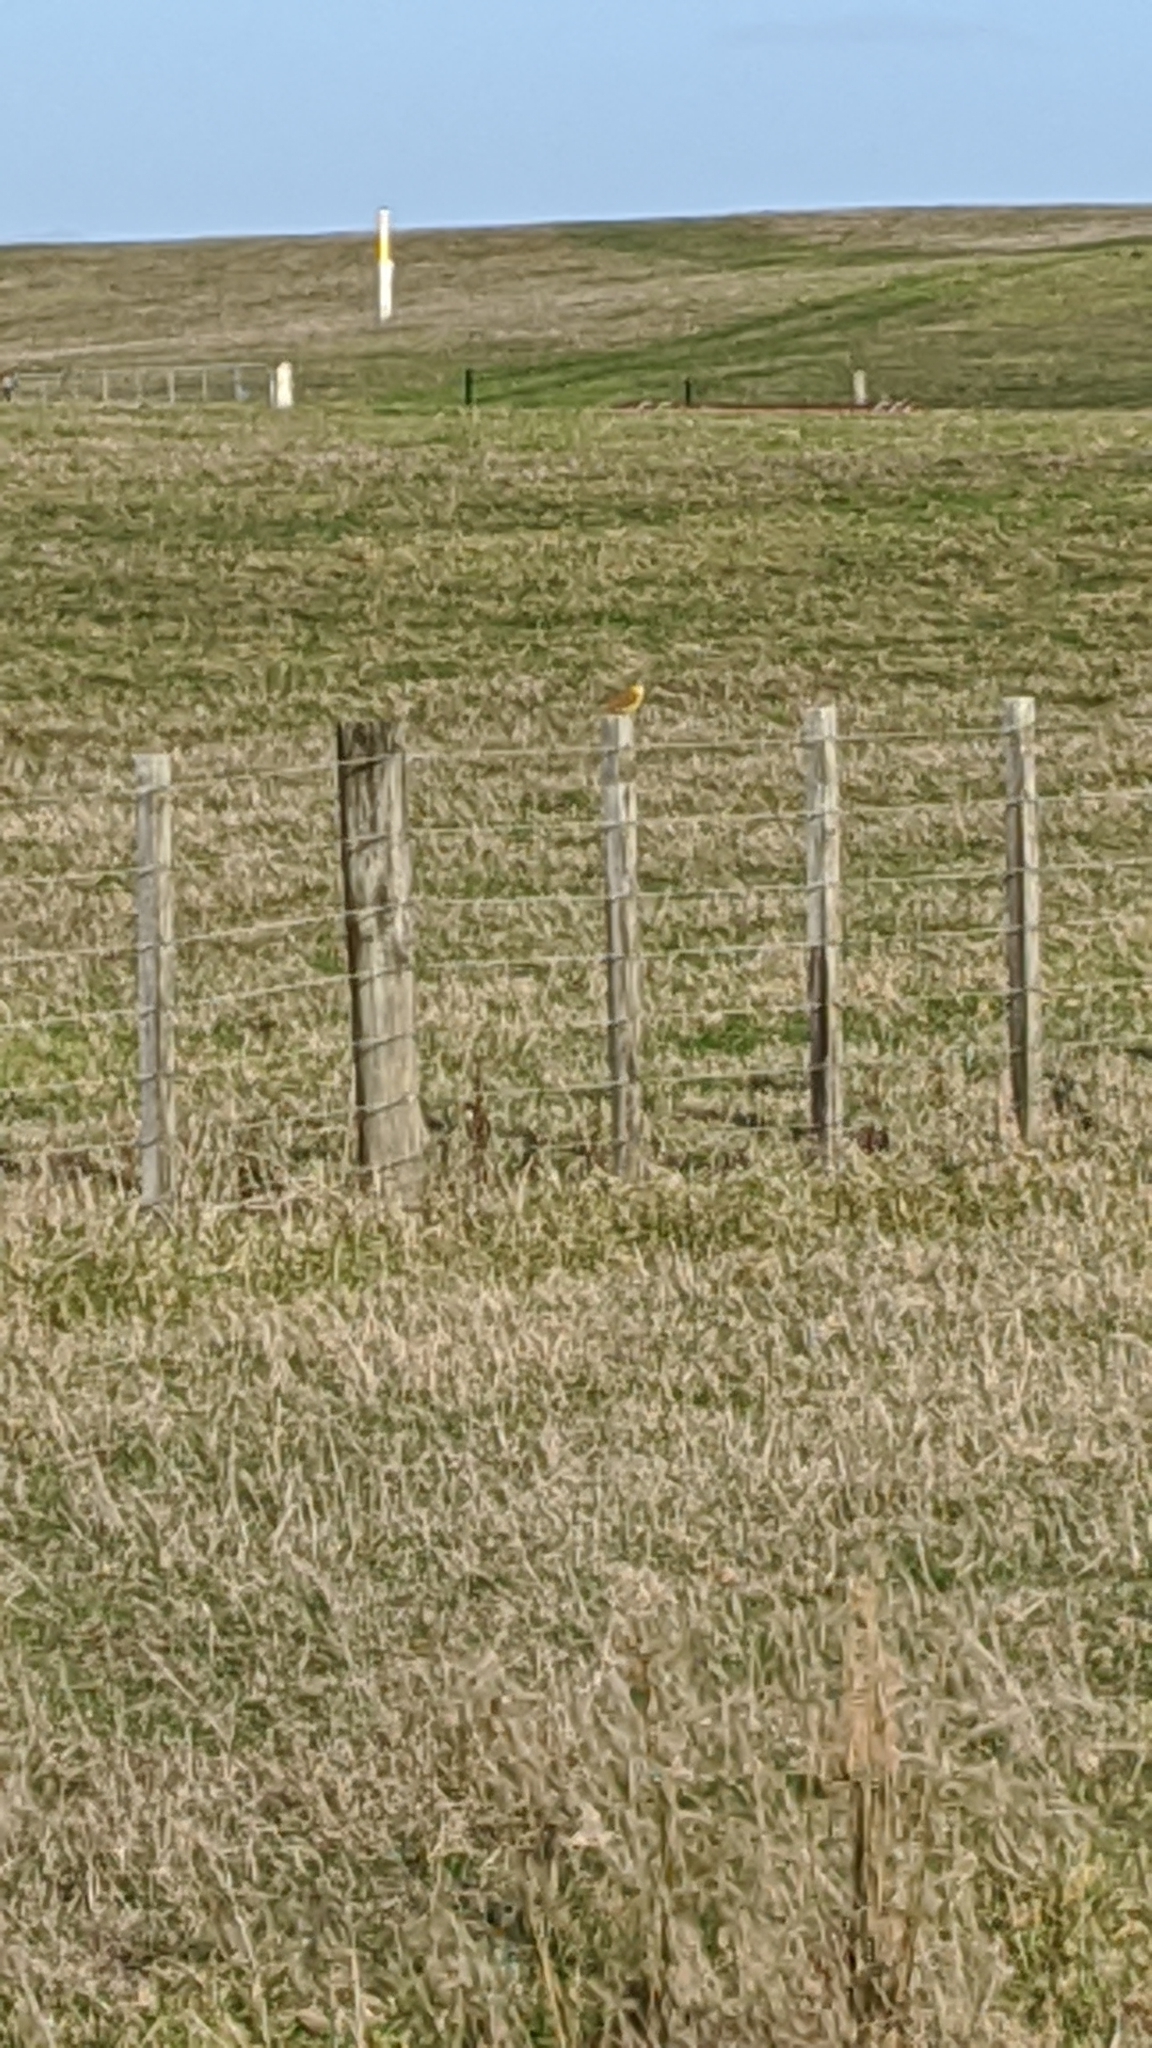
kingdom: Animalia
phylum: Chordata
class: Aves
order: Passeriformes
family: Emberizidae
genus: Emberiza
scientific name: Emberiza citrinella
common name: Yellowhammer
